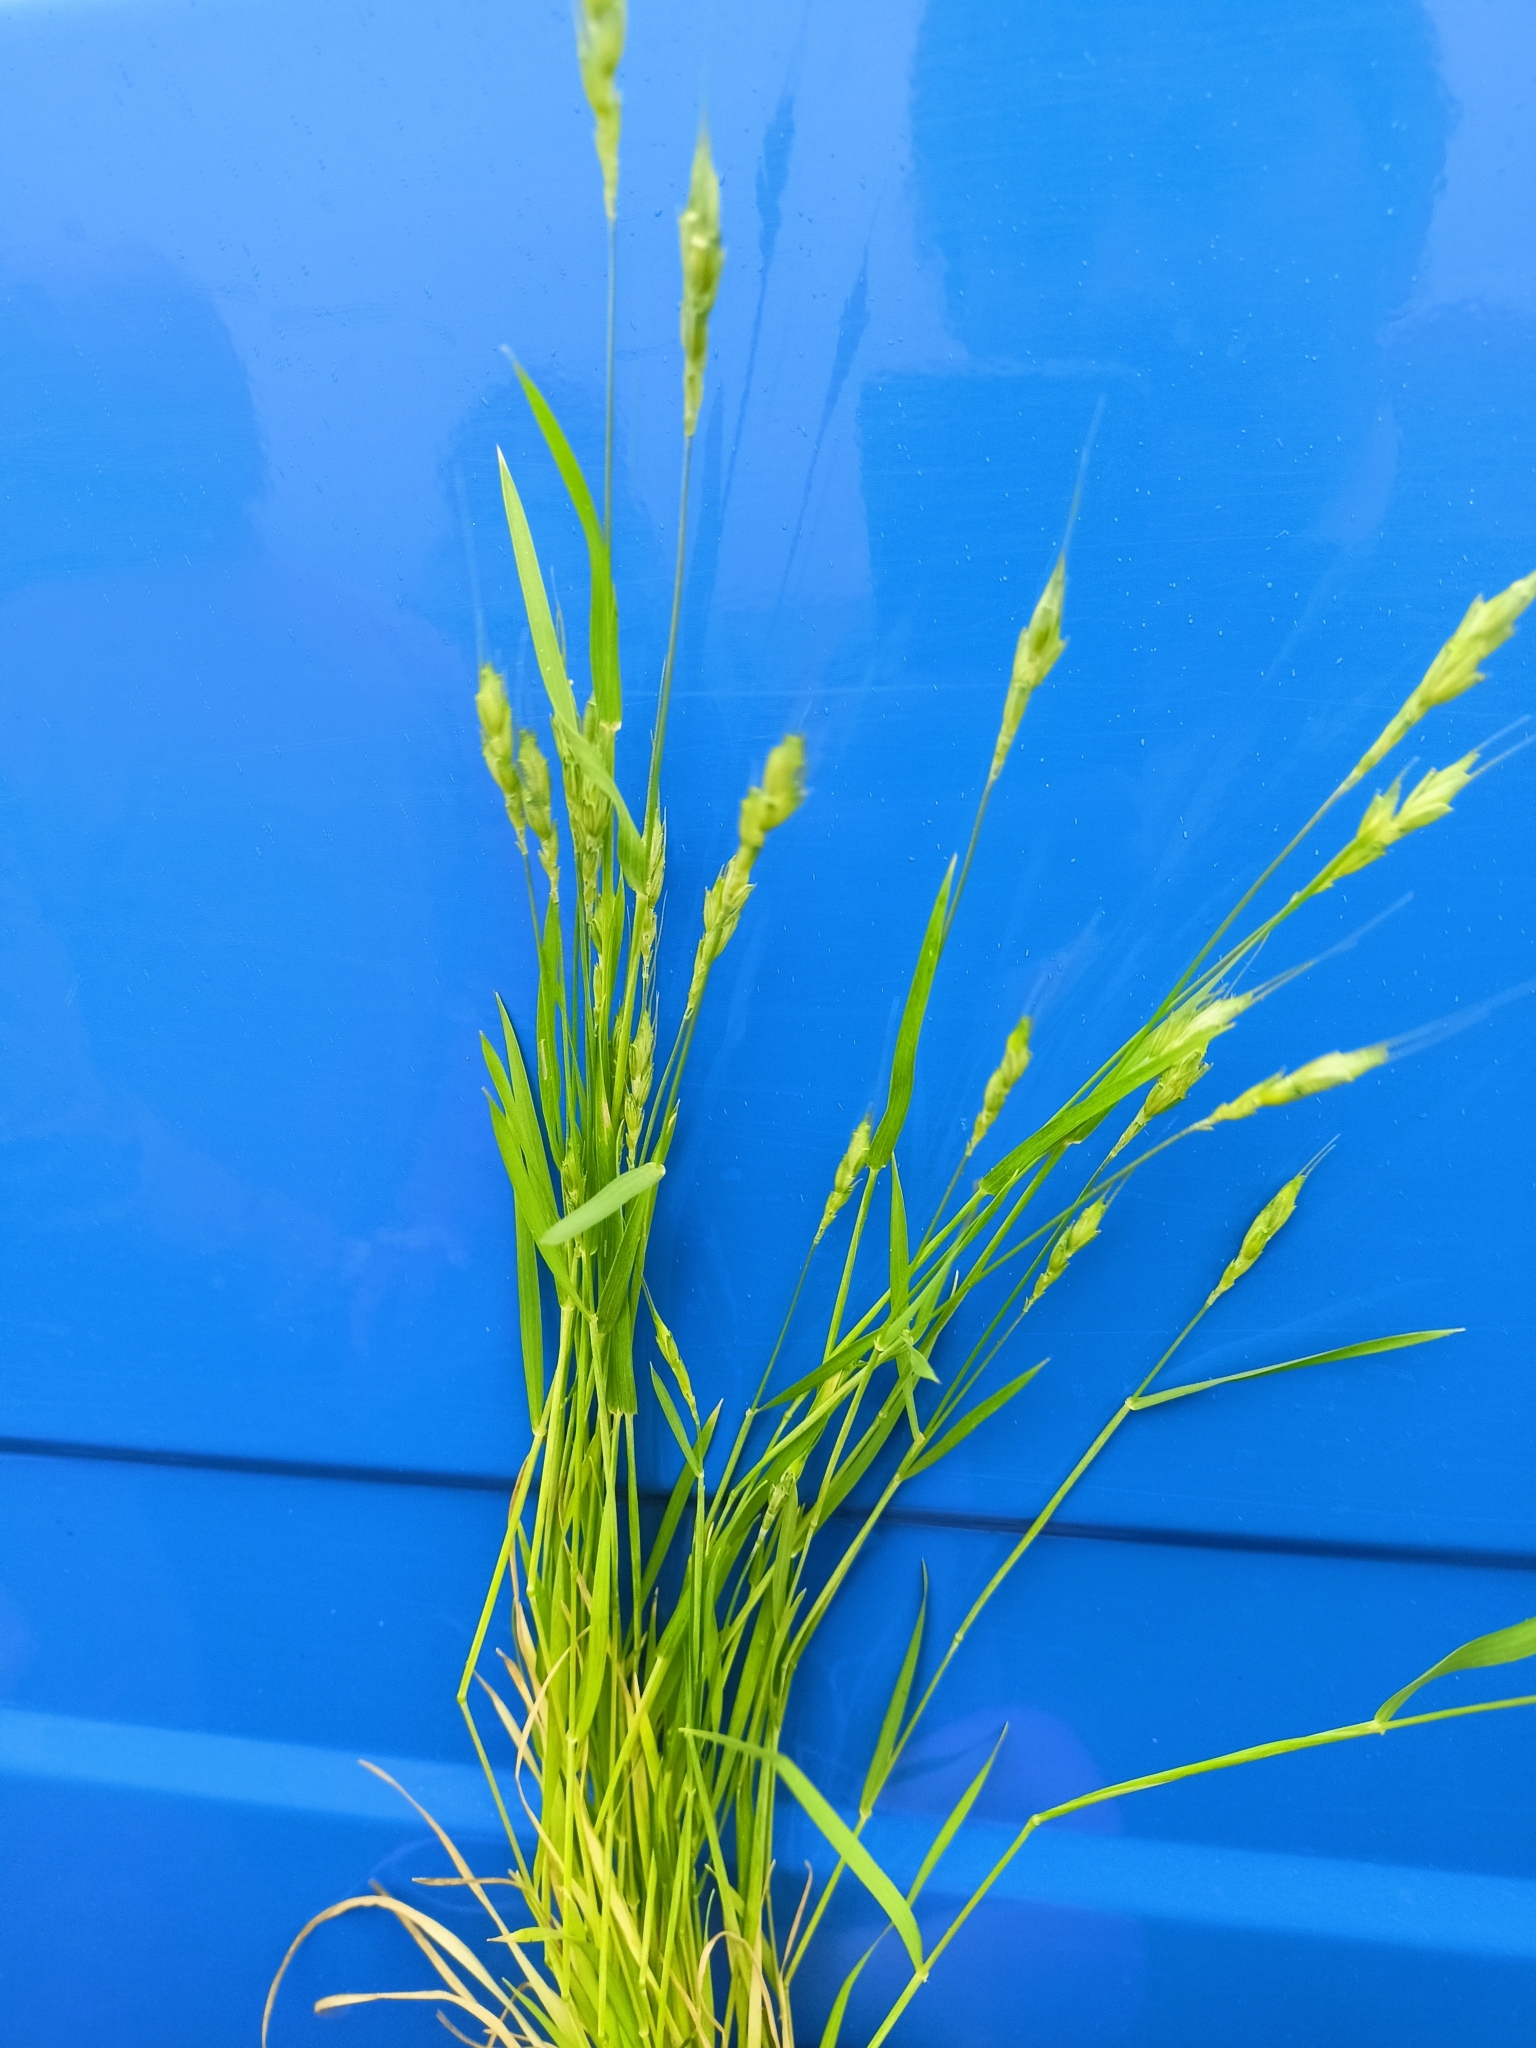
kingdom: Plantae
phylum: Tracheophyta
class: Liliopsida
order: Poales
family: Poaceae
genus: Triticum
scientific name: Triticum aestivum
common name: Common wheat
